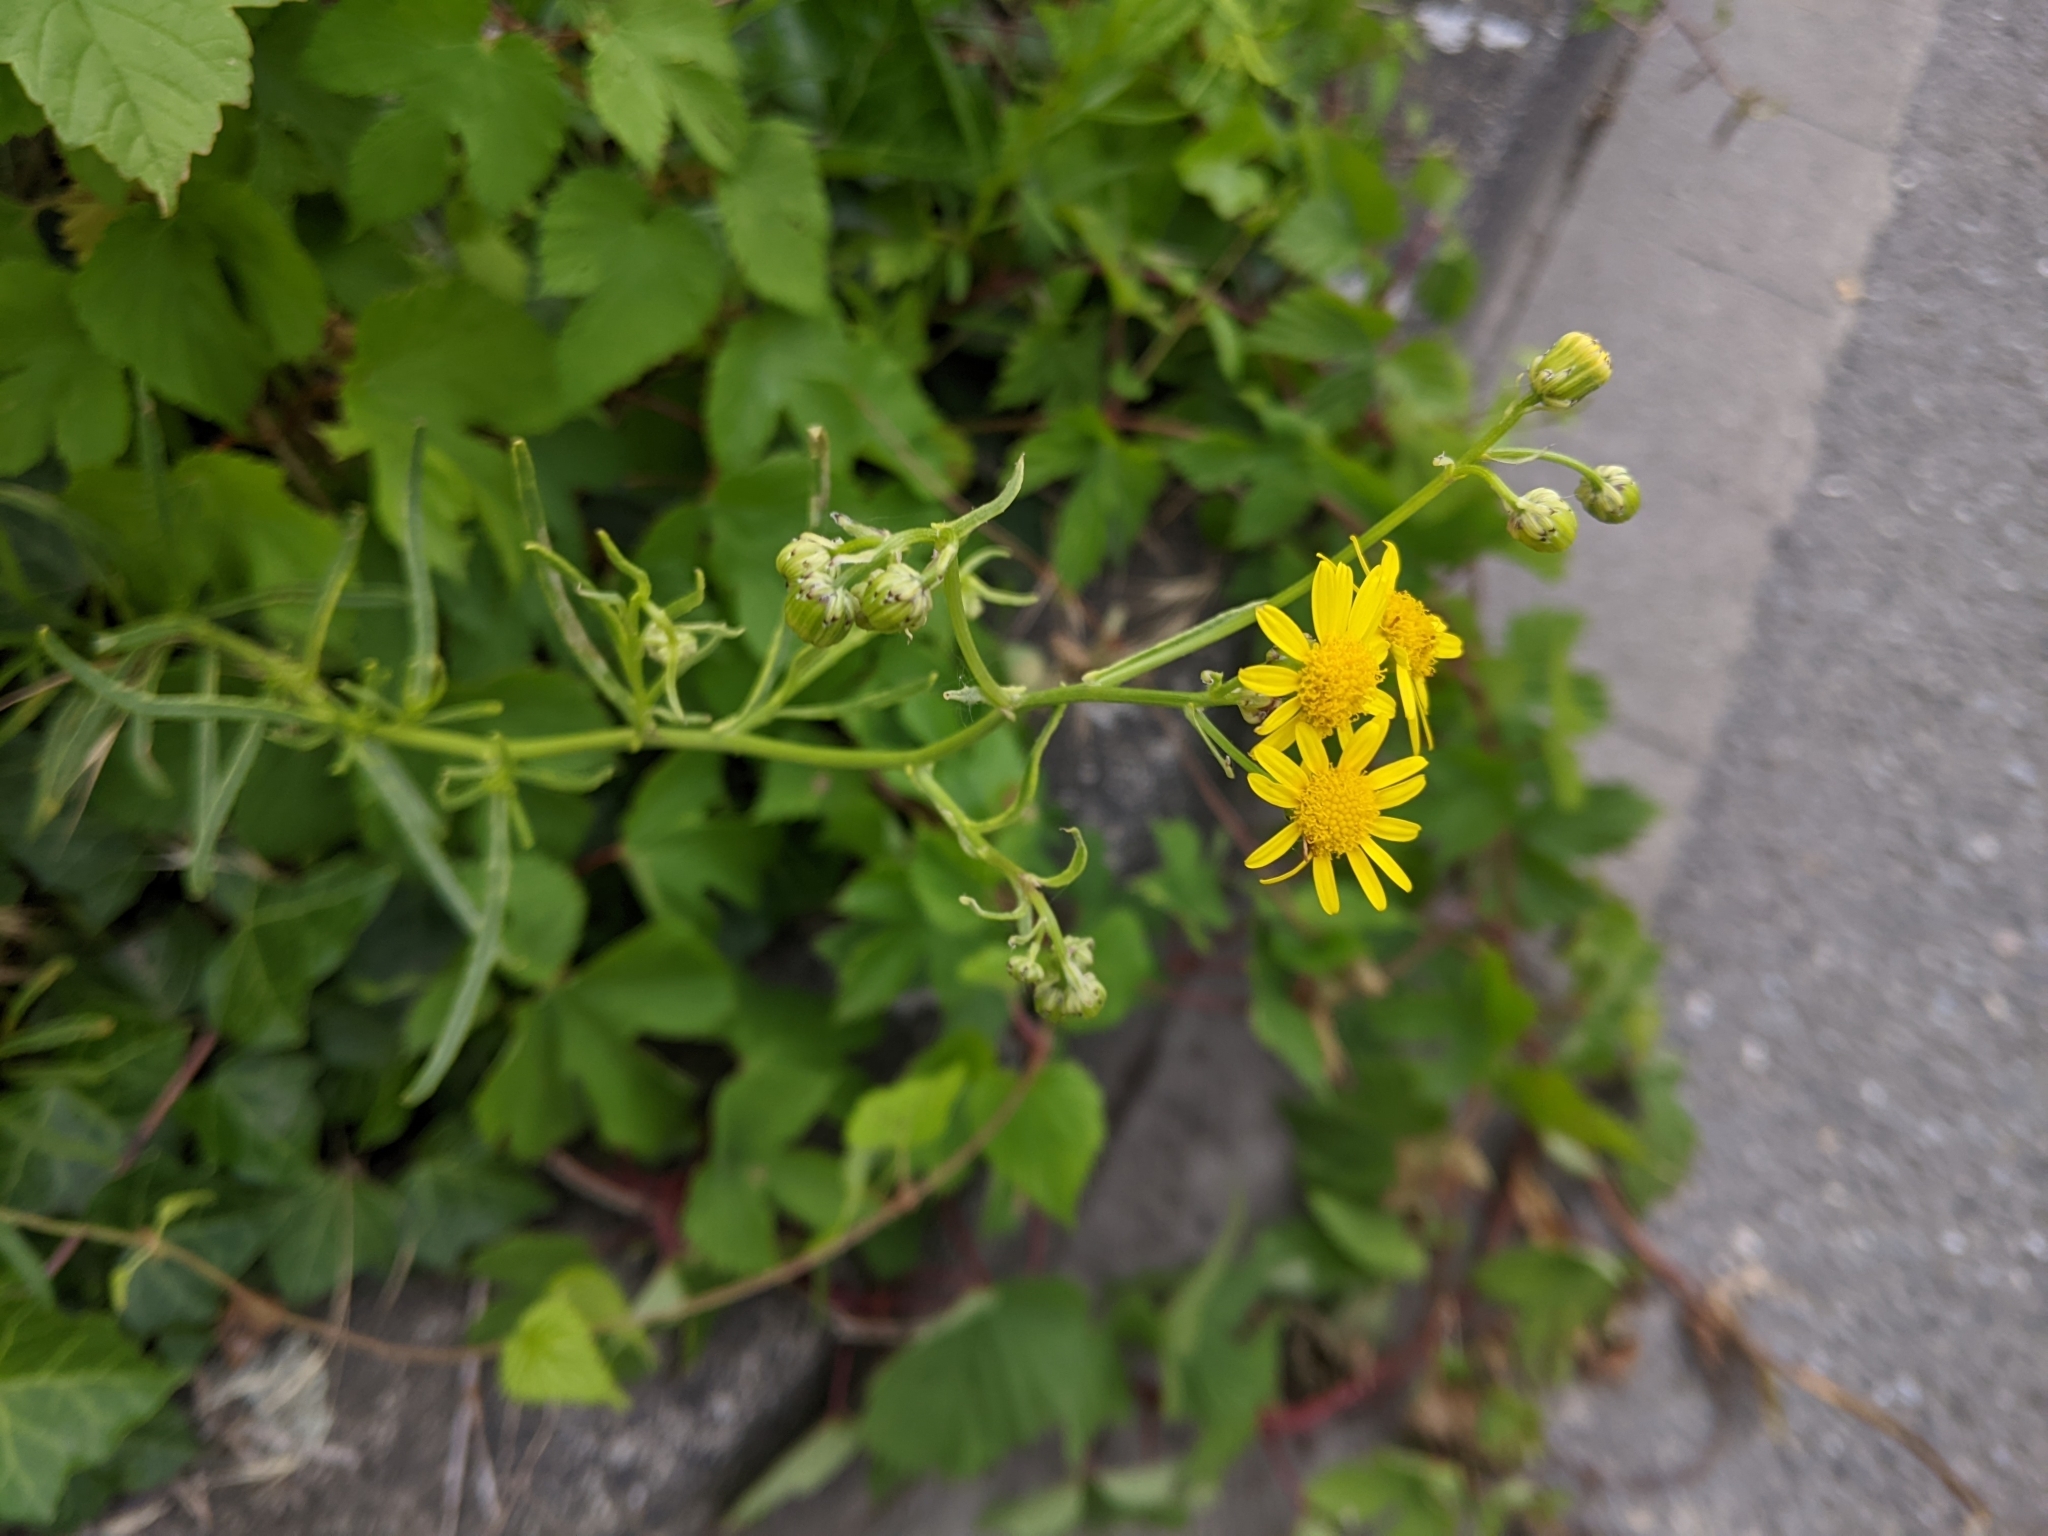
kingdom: Plantae
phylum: Tracheophyta
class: Magnoliopsida
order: Asterales
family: Asteraceae
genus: Senecio
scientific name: Senecio inaequidens
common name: Narrow-leaved ragwort
